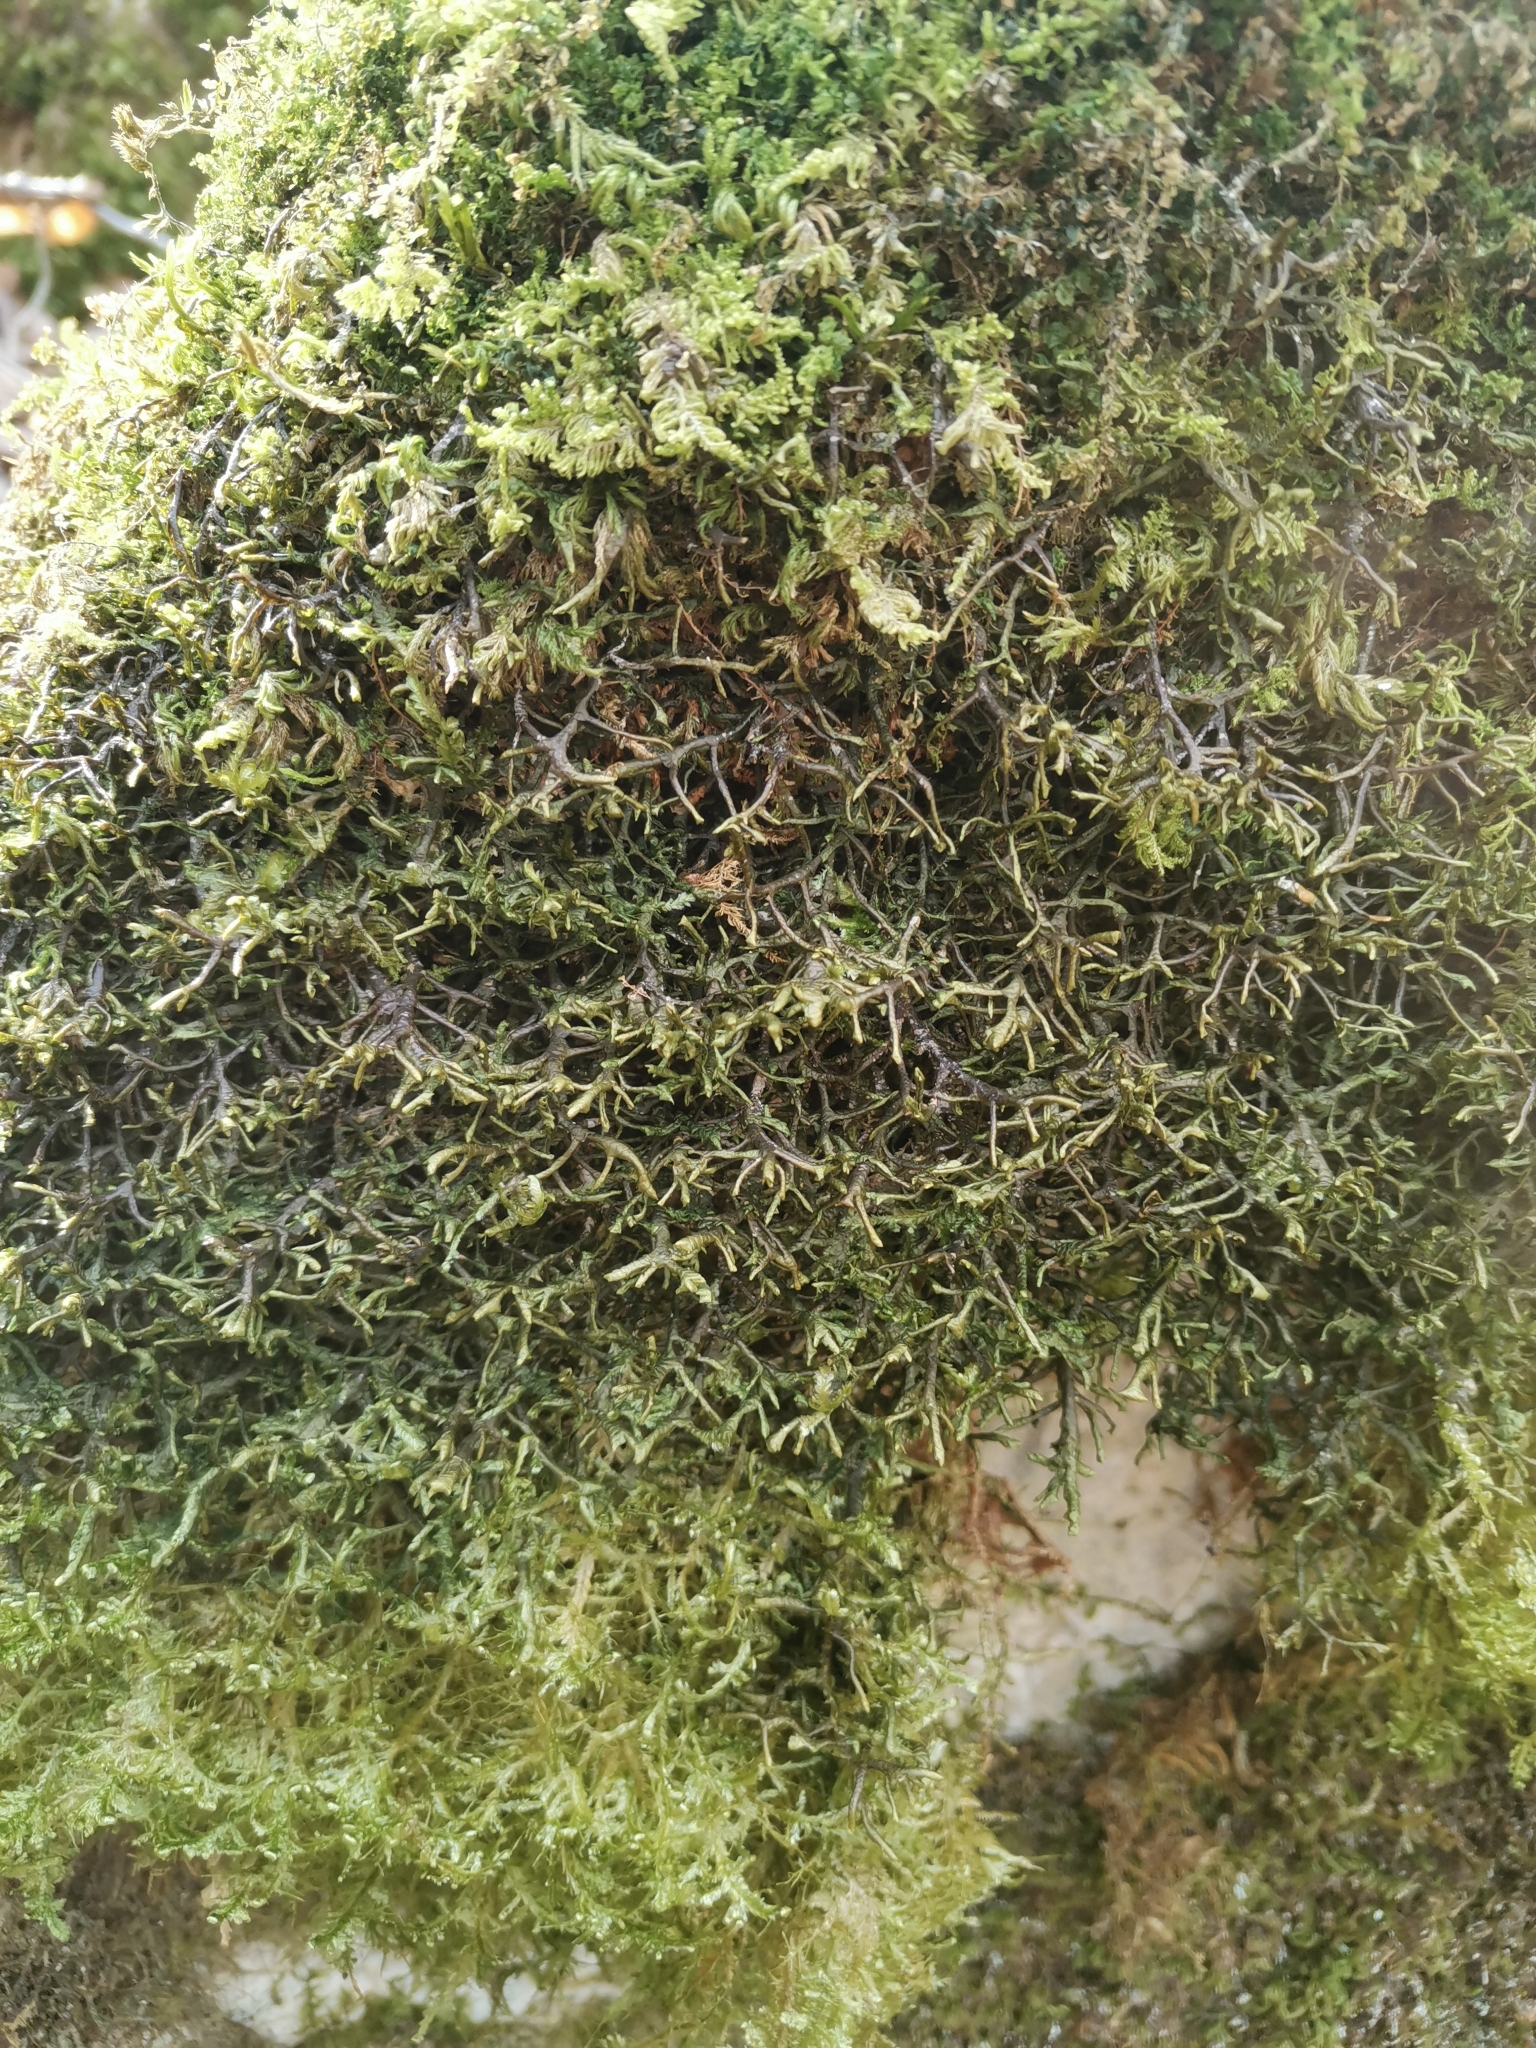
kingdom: Plantae
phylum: Marchantiophyta
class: Jungermanniopsida
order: Porellales
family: Porellaceae
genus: Porella
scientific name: Porella arboris-vitae
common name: Bitter scalewort
